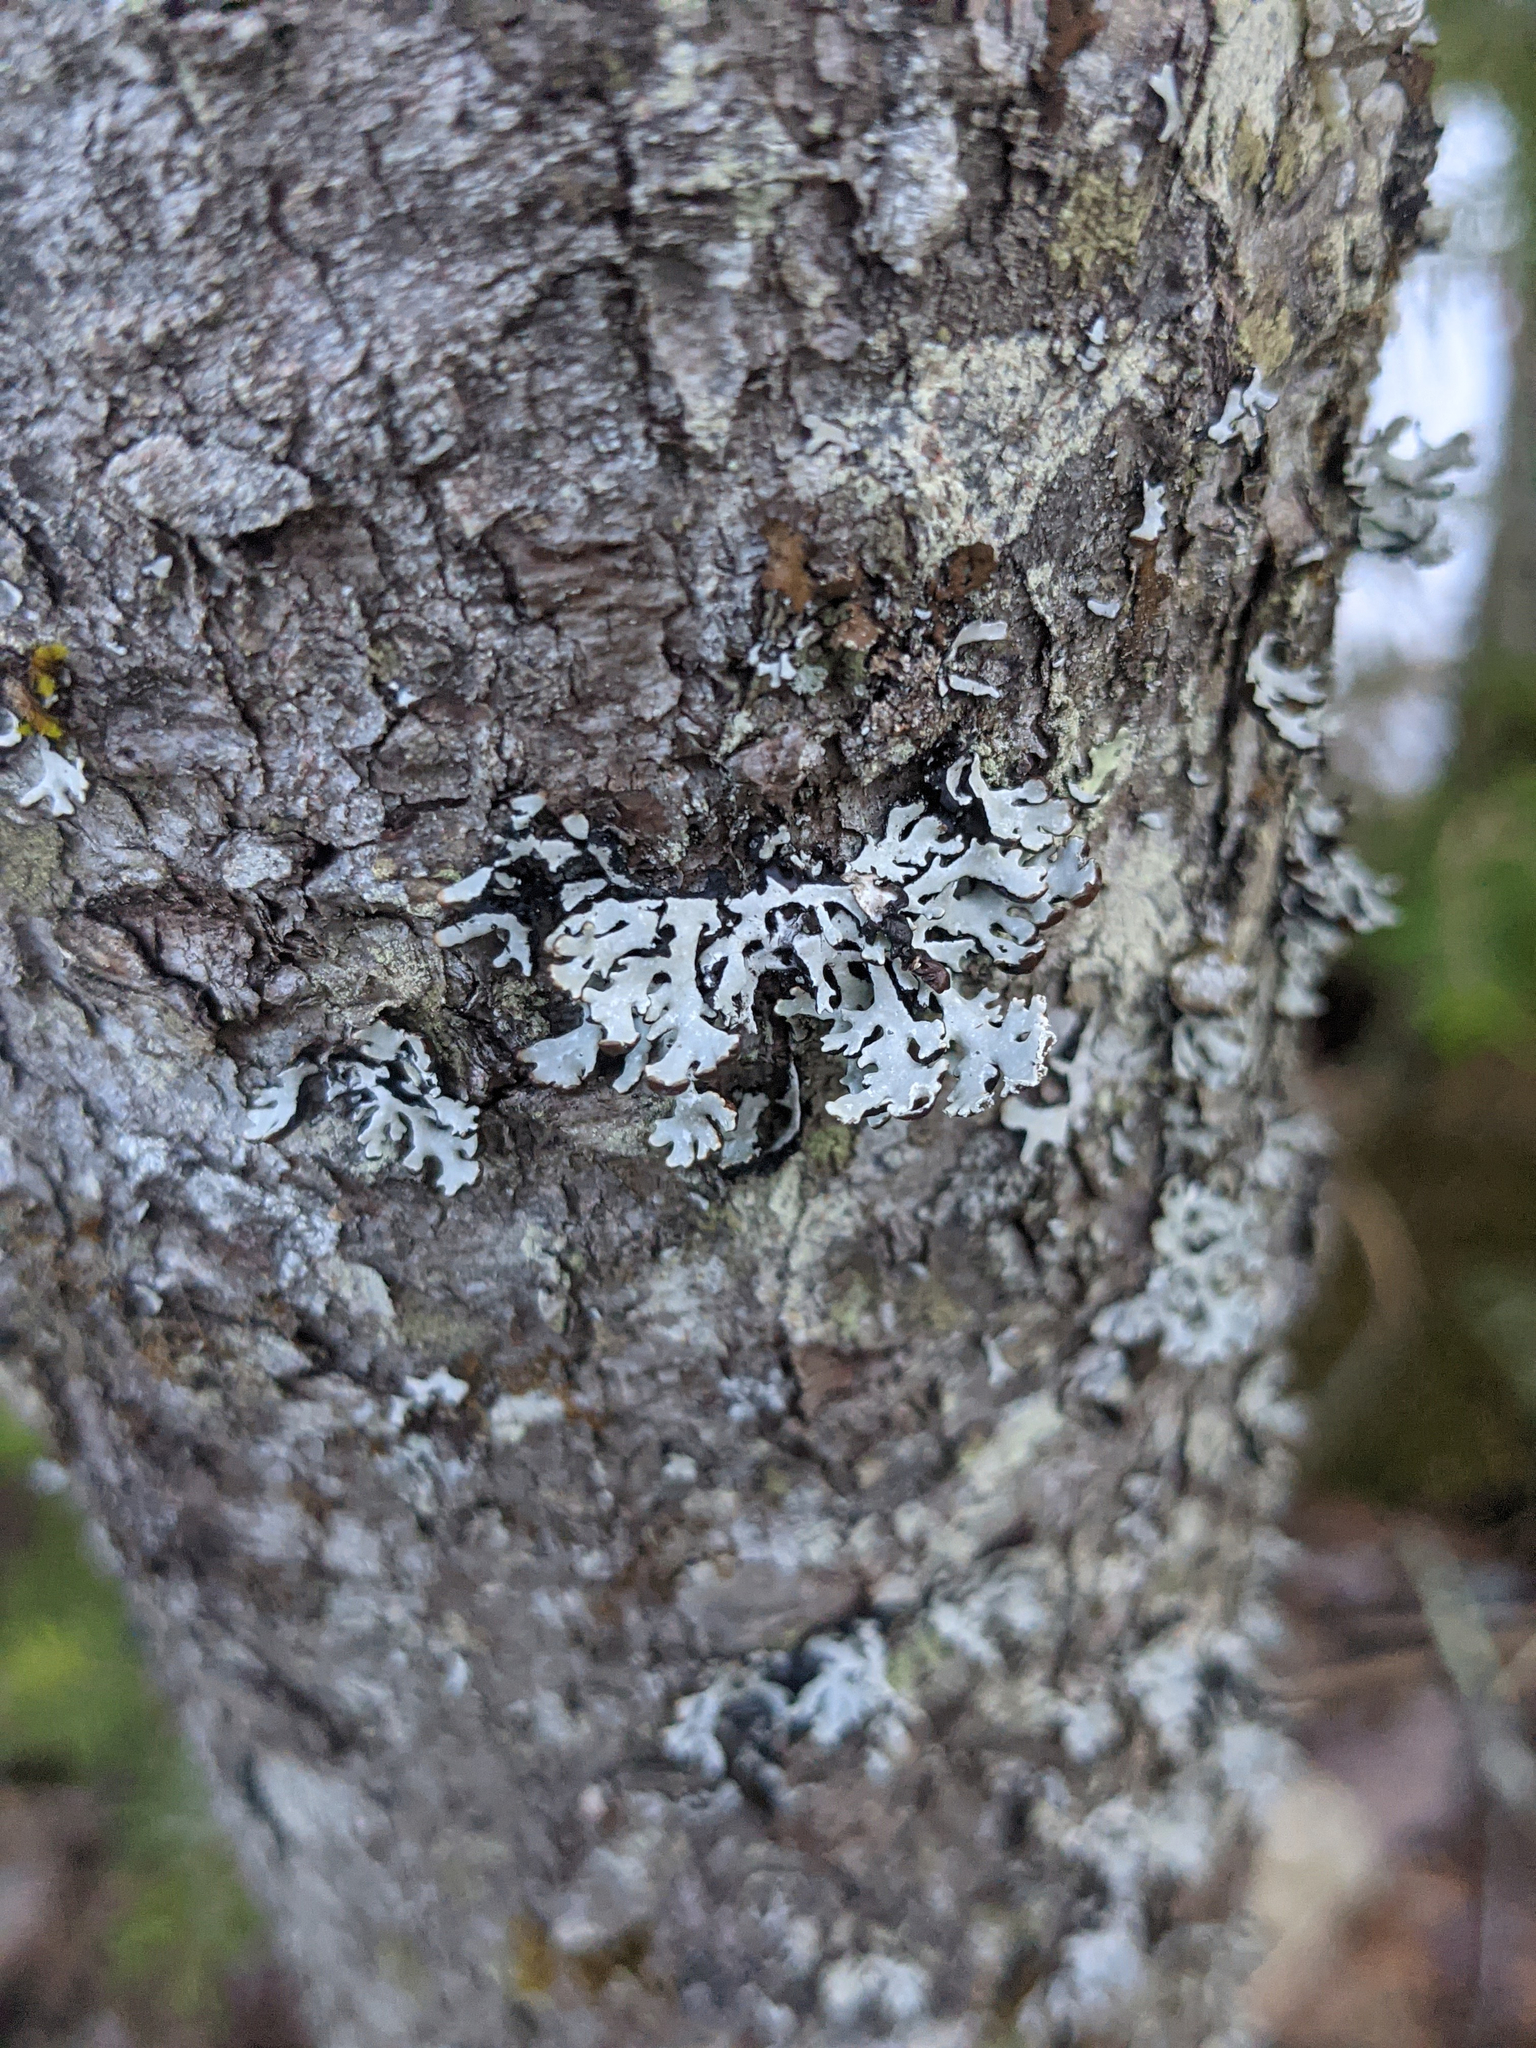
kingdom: Fungi
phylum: Ascomycota
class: Lecanoromycetes
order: Lecanorales
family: Parmeliaceae
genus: Hypogymnia
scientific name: Hypogymnia physodes
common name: Dark crottle
